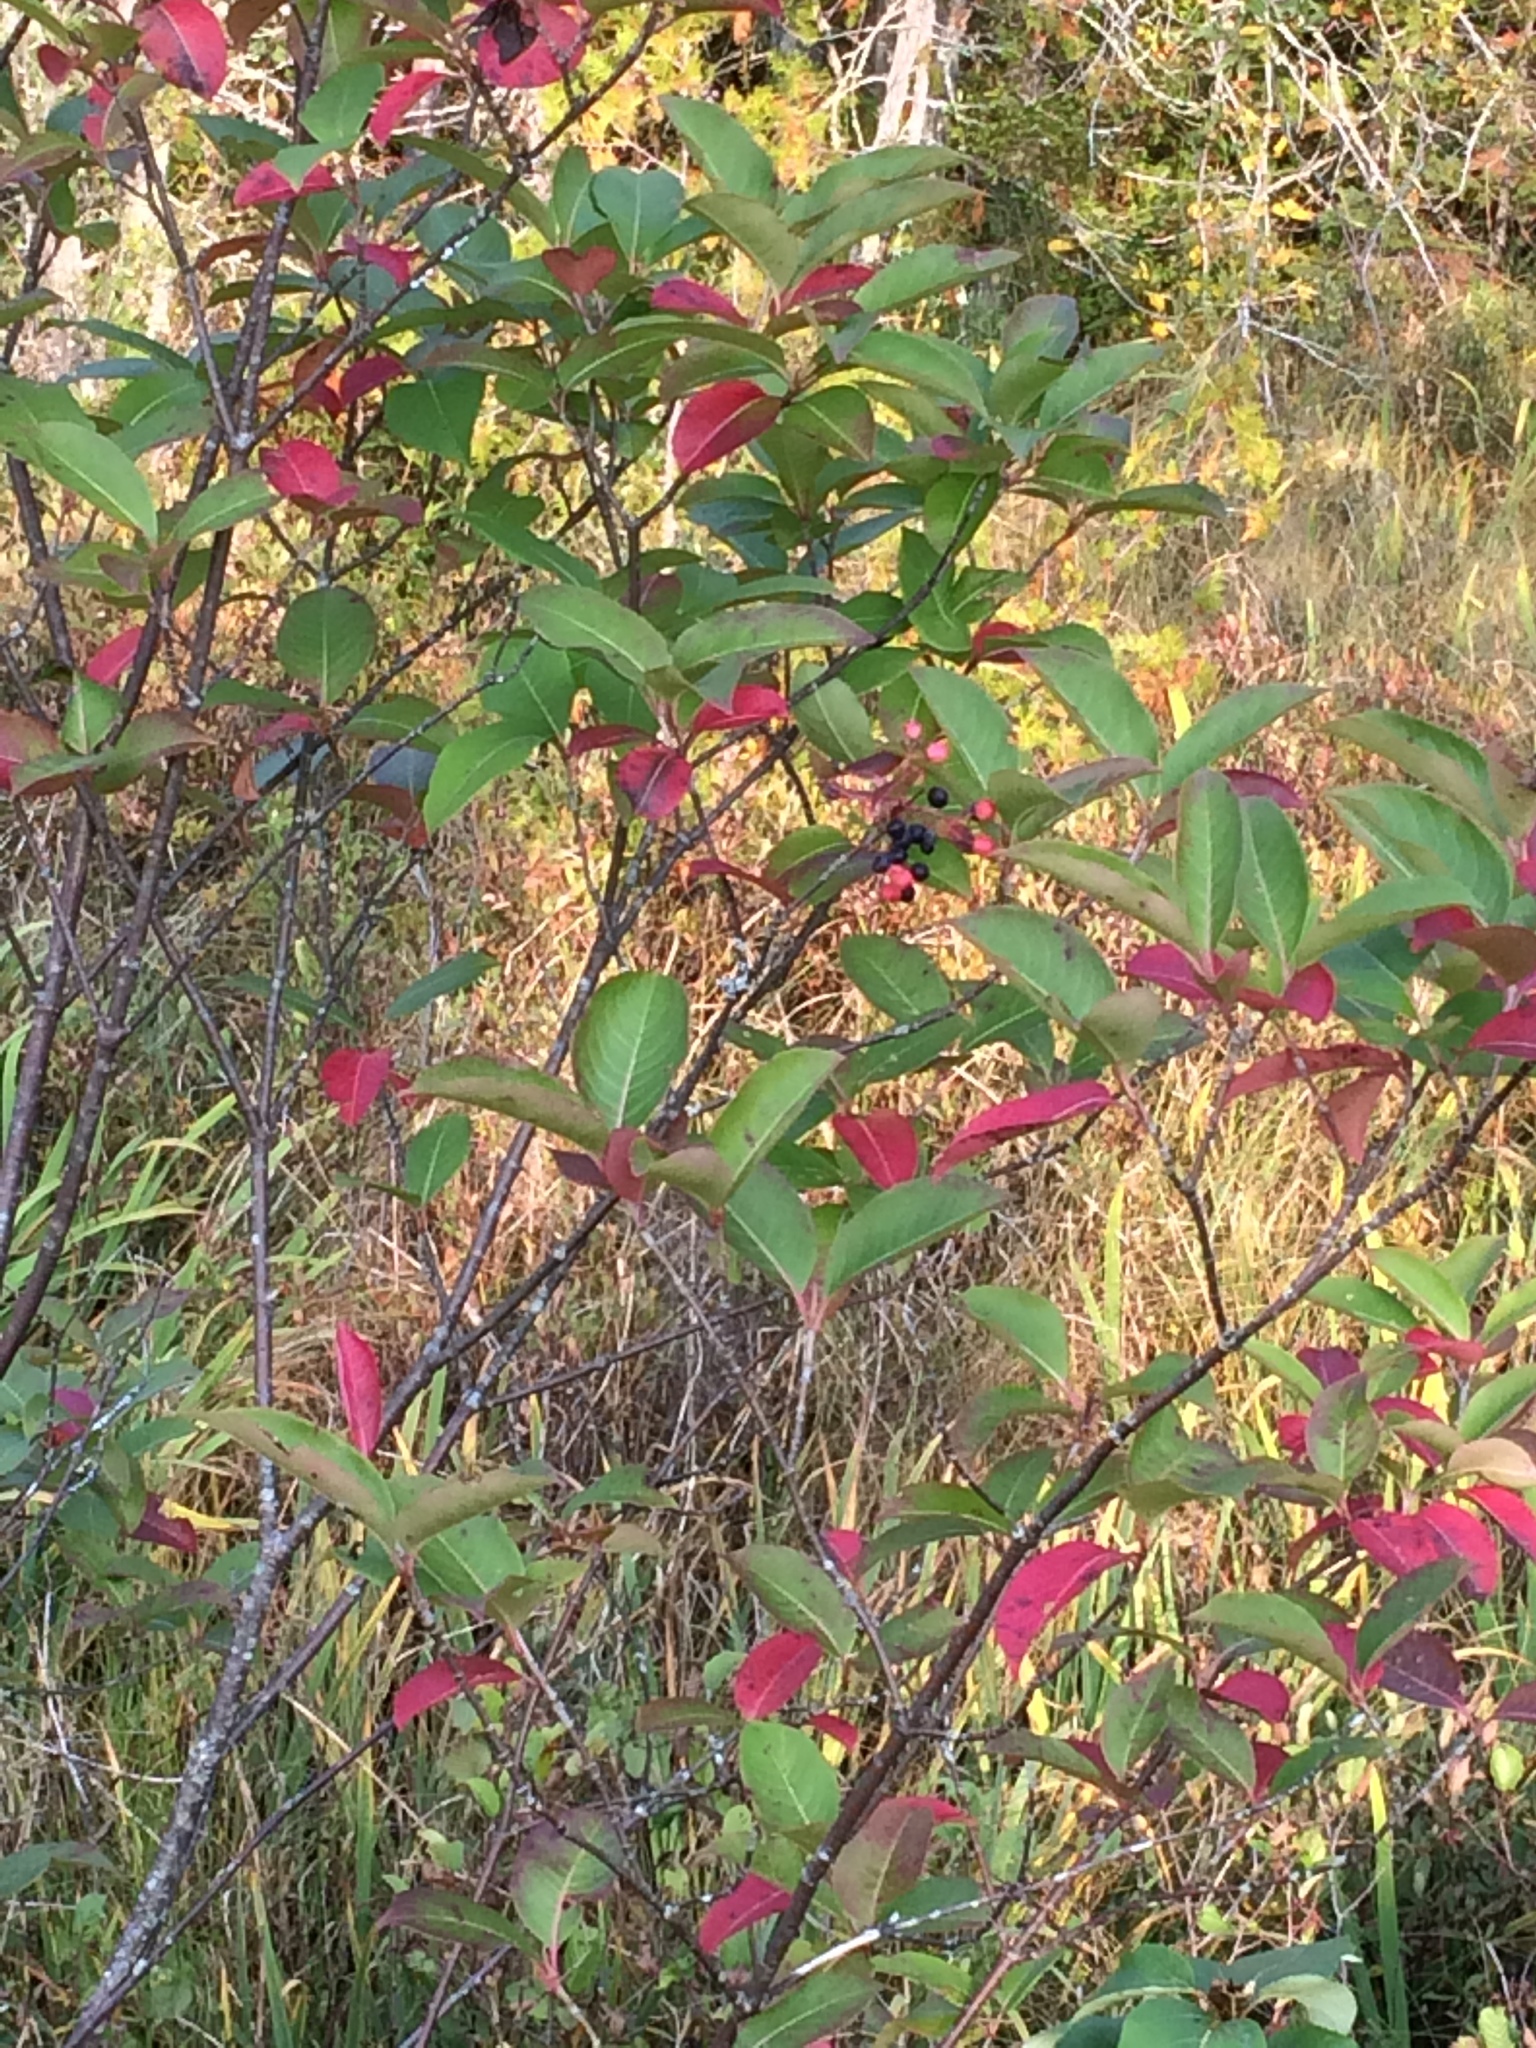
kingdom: Plantae
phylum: Tracheophyta
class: Magnoliopsida
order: Dipsacales
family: Viburnaceae
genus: Viburnum
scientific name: Viburnum cassinoides
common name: Swamp haw
